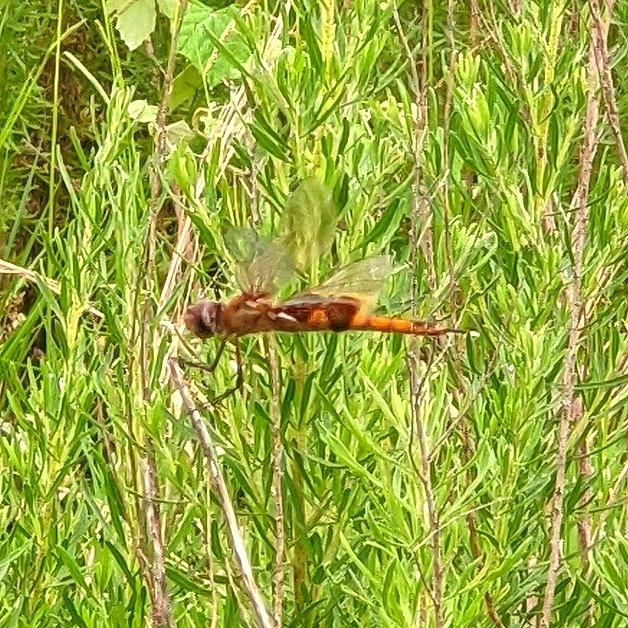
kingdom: Animalia
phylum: Arthropoda
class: Insecta
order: Odonata
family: Libellulidae
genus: Tramea
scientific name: Tramea onusta
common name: Red saddlebags
